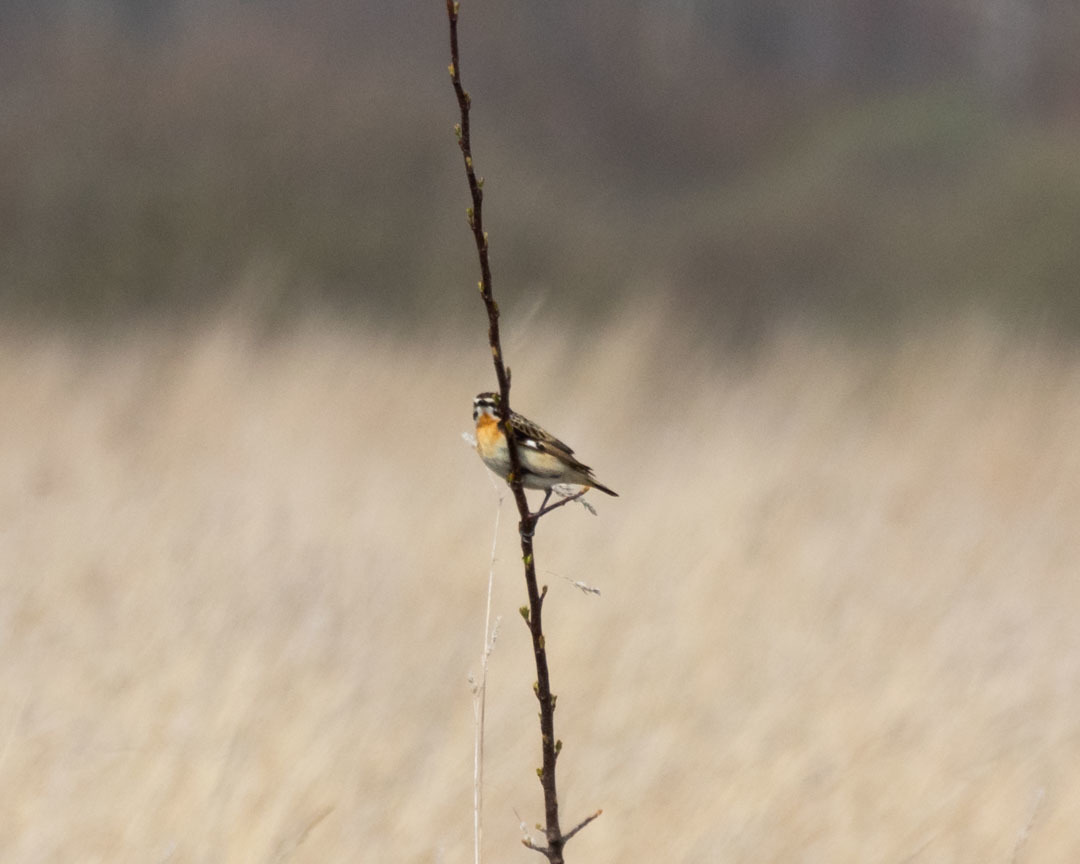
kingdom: Animalia
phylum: Chordata
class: Aves
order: Passeriformes
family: Muscicapidae
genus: Saxicola
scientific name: Saxicola rubetra
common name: Whinchat
